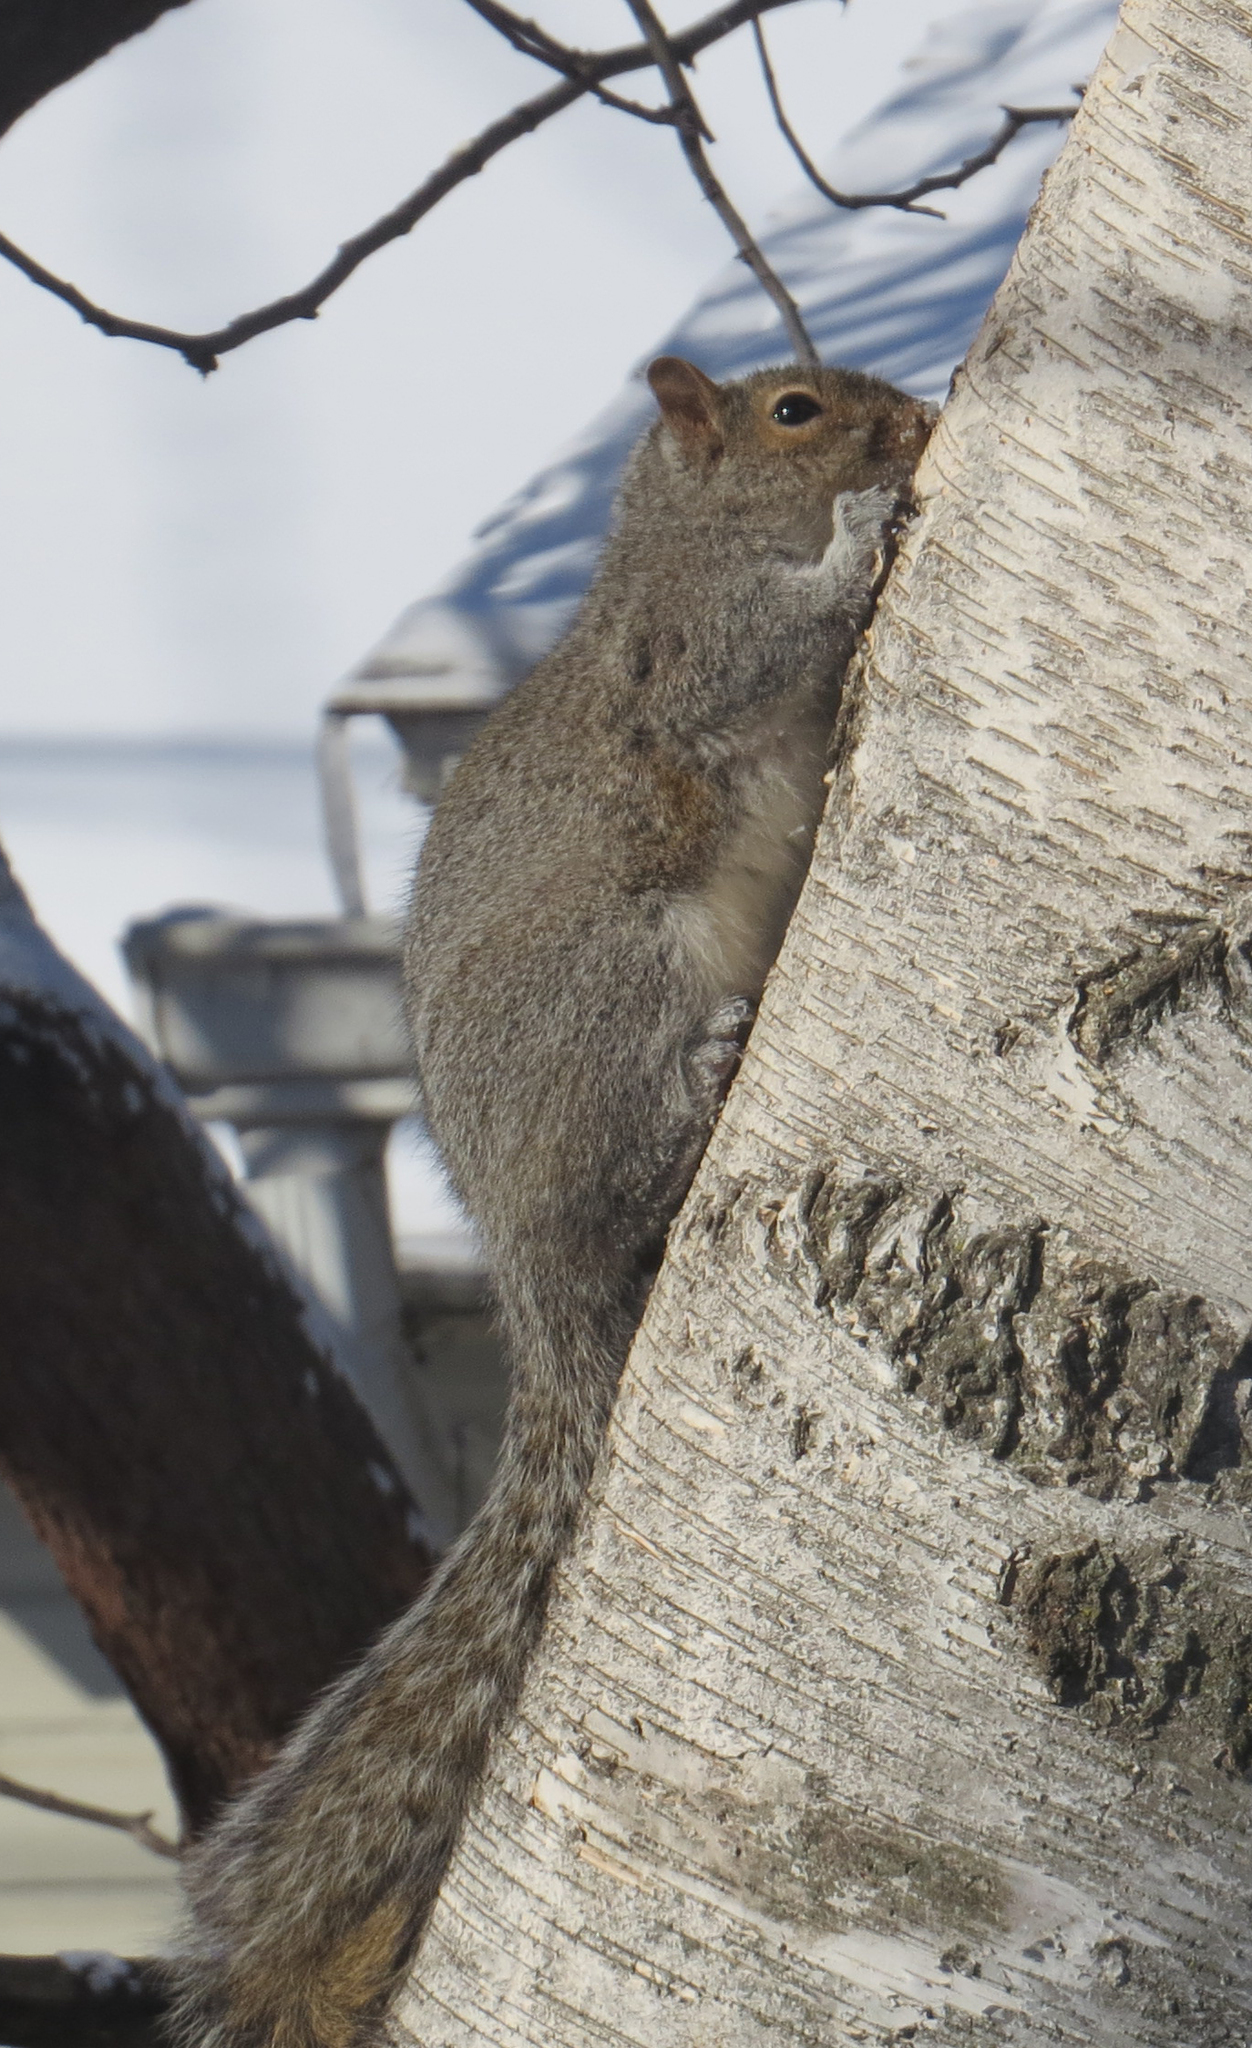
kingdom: Animalia
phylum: Chordata
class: Mammalia
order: Rodentia
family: Sciuridae
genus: Sciurus
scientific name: Sciurus carolinensis
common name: Eastern gray squirrel
